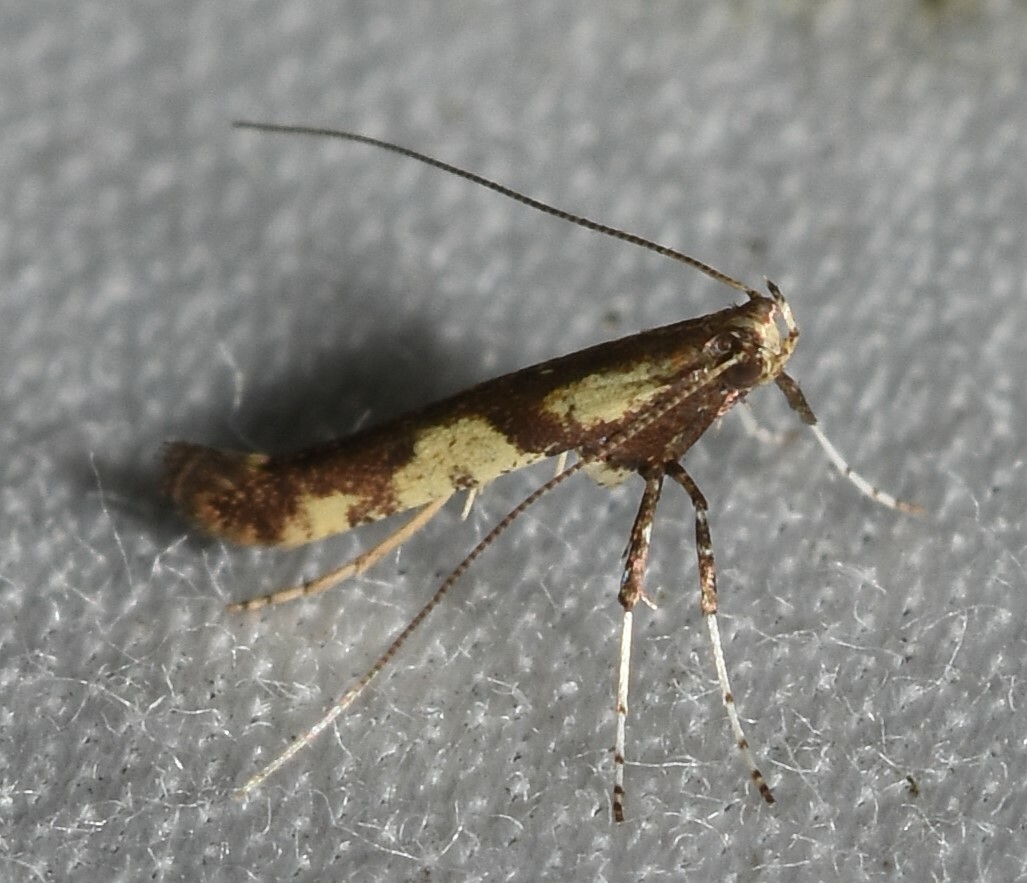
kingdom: Animalia
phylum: Arthropoda
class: Insecta
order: Lepidoptera
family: Gracillariidae
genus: Caloptilia
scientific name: Caloptilia blandella
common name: Walnut caloptilia moth
